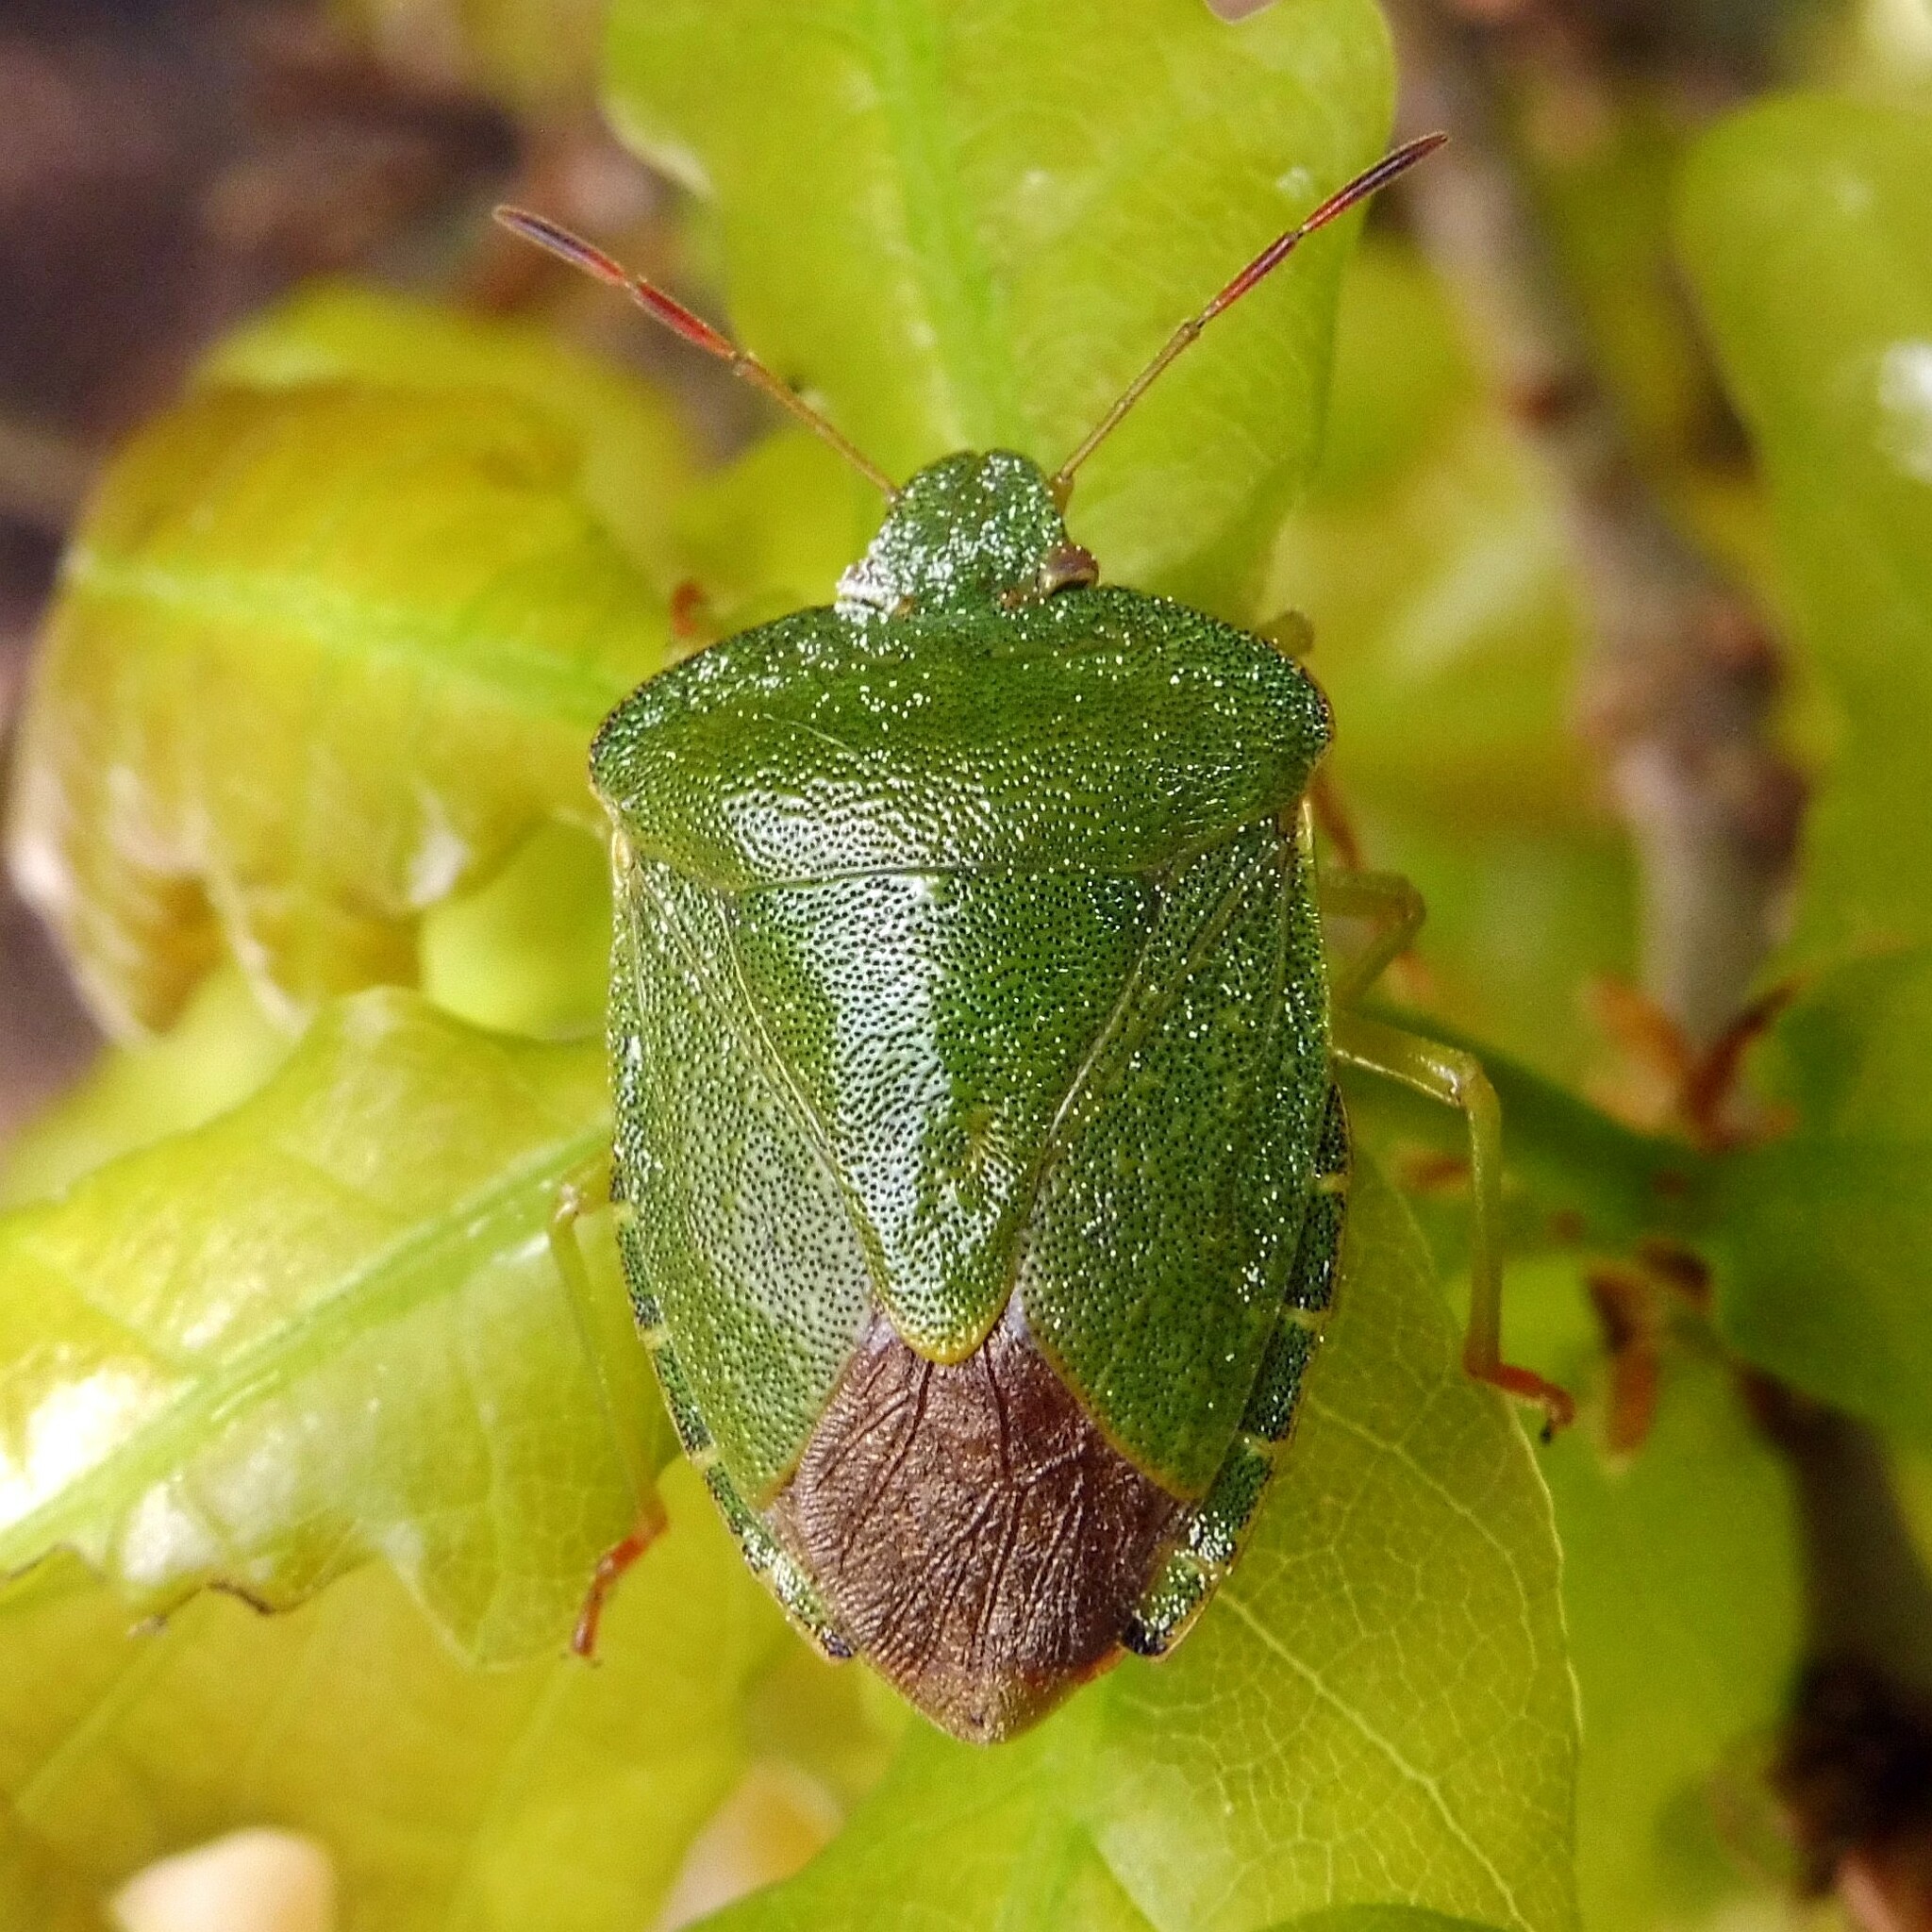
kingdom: Animalia
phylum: Arthropoda
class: Insecta
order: Hemiptera
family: Pentatomidae
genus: Palomena
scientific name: Palomena prasina
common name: Green shieldbug
